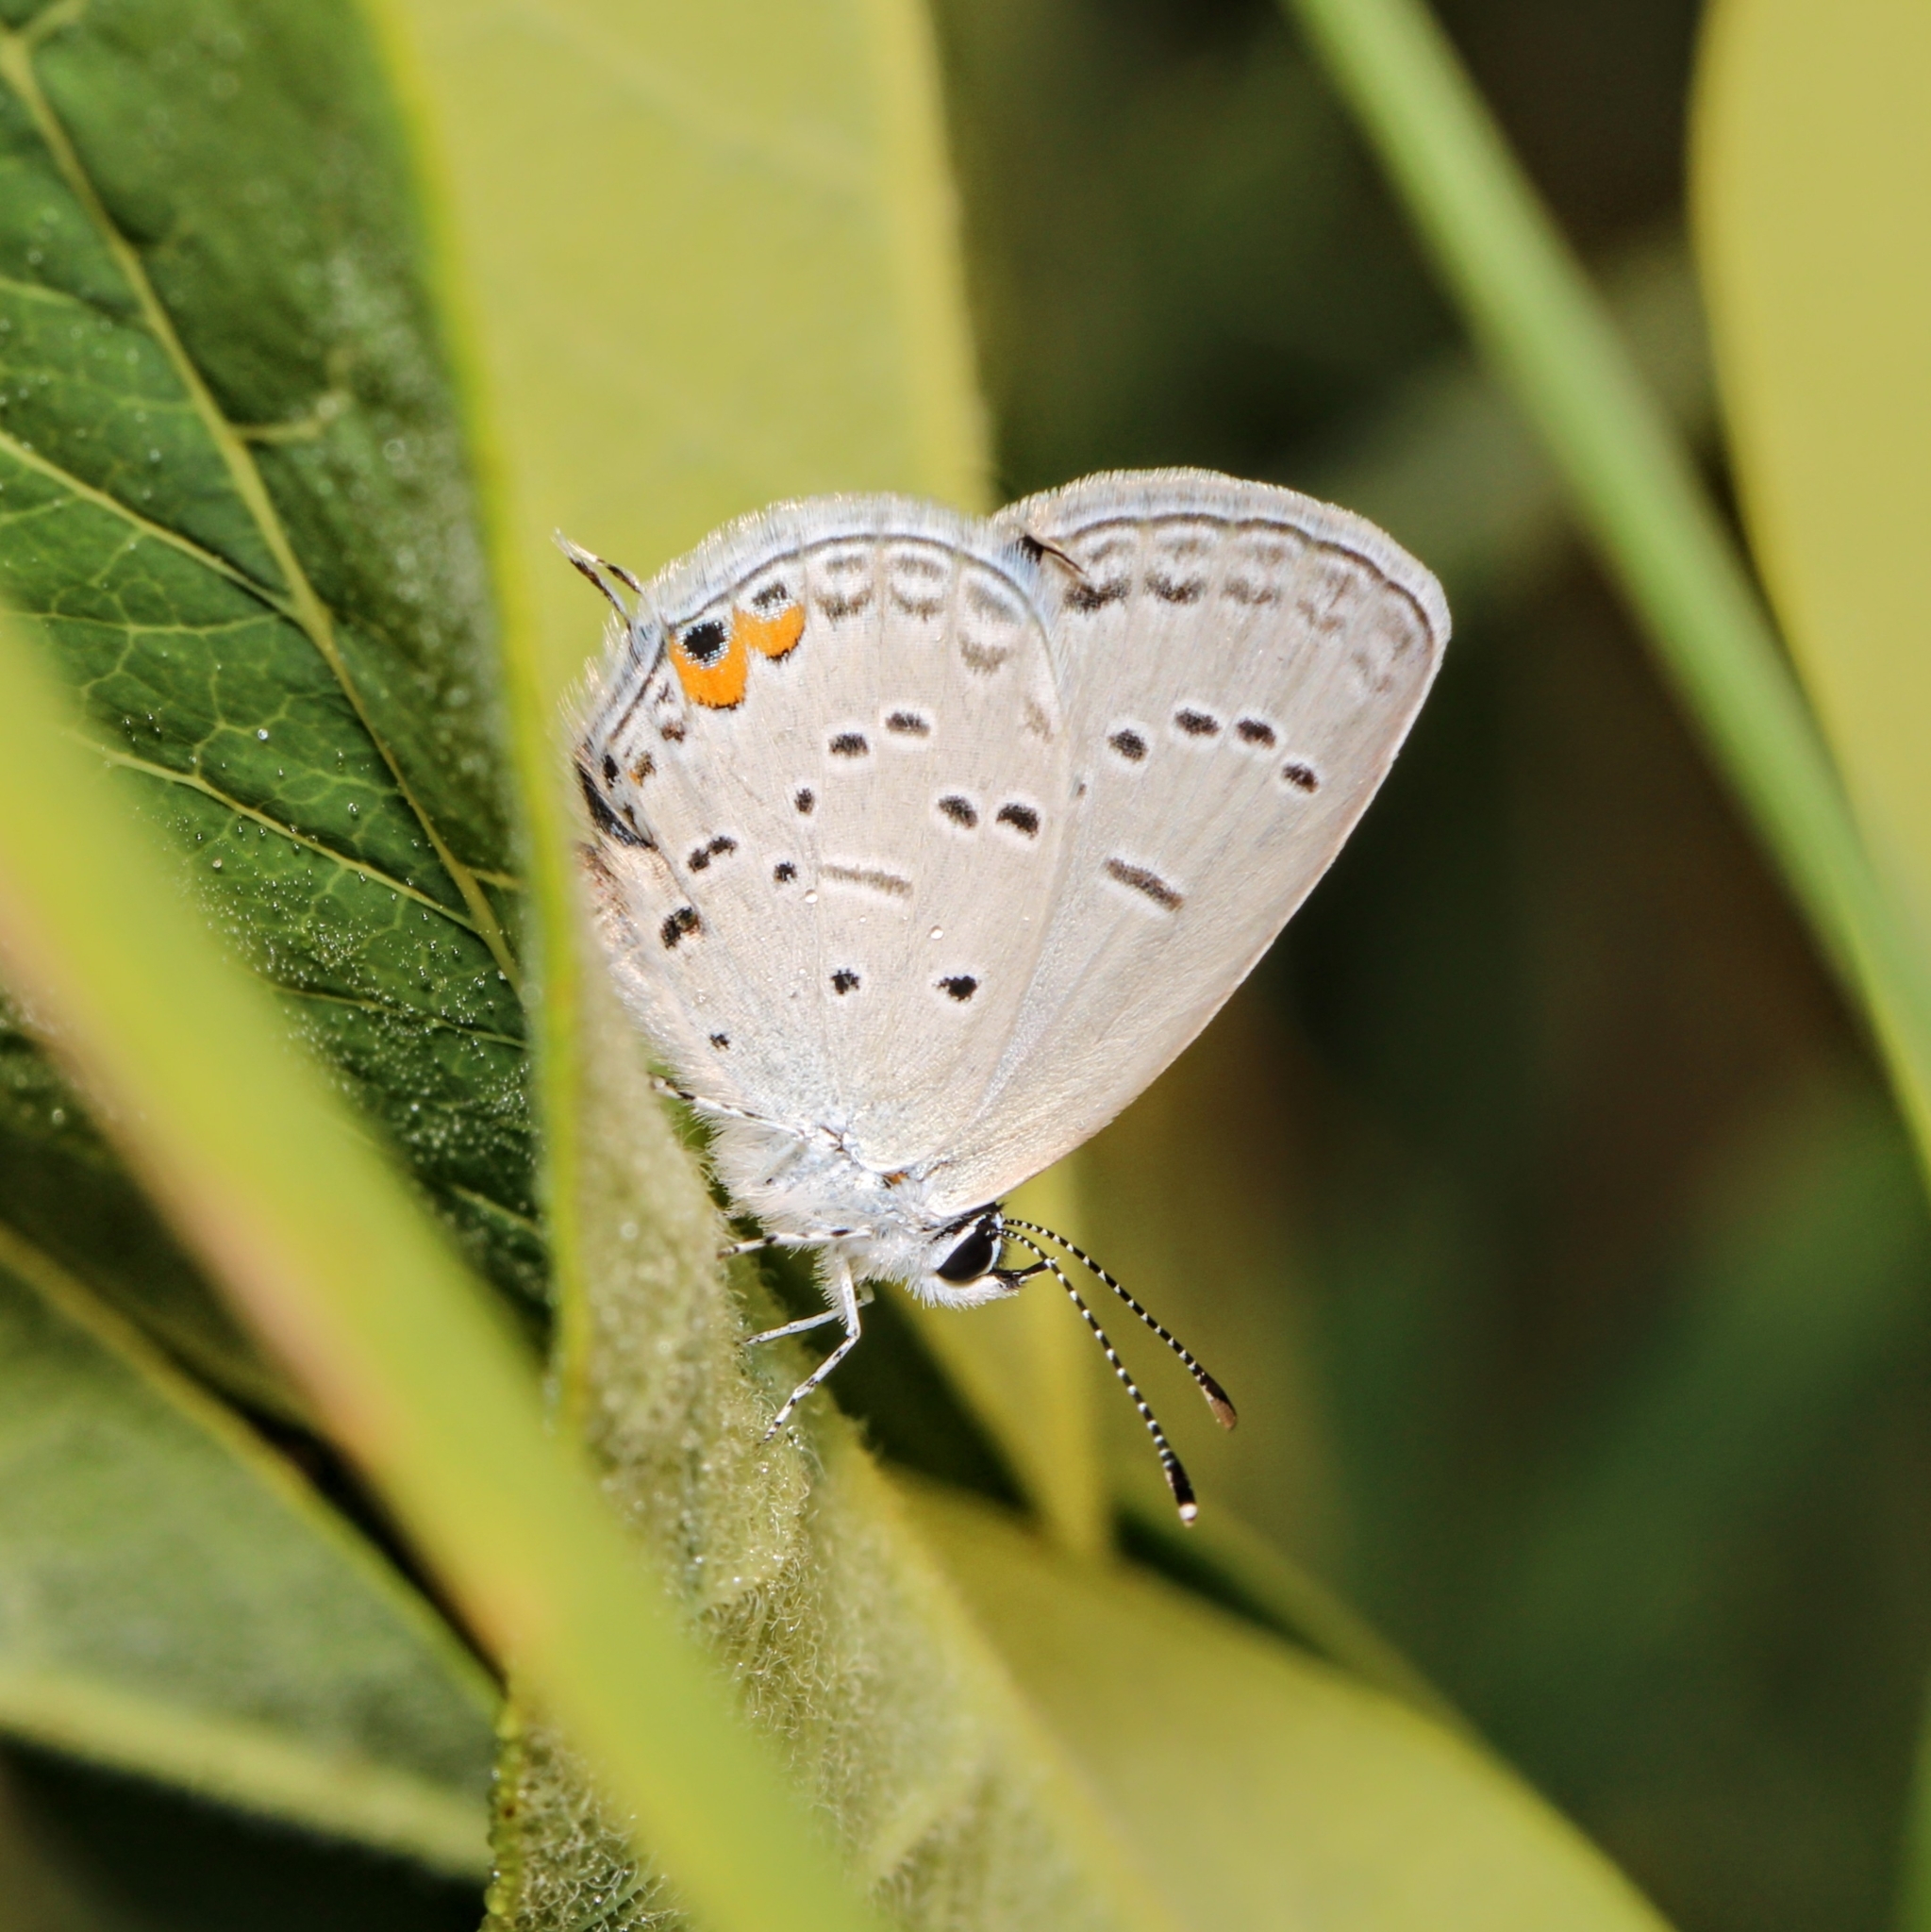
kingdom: Animalia
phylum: Arthropoda
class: Insecta
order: Lepidoptera
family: Lycaenidae
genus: Elkalyce
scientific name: Elkalyce comyntas
